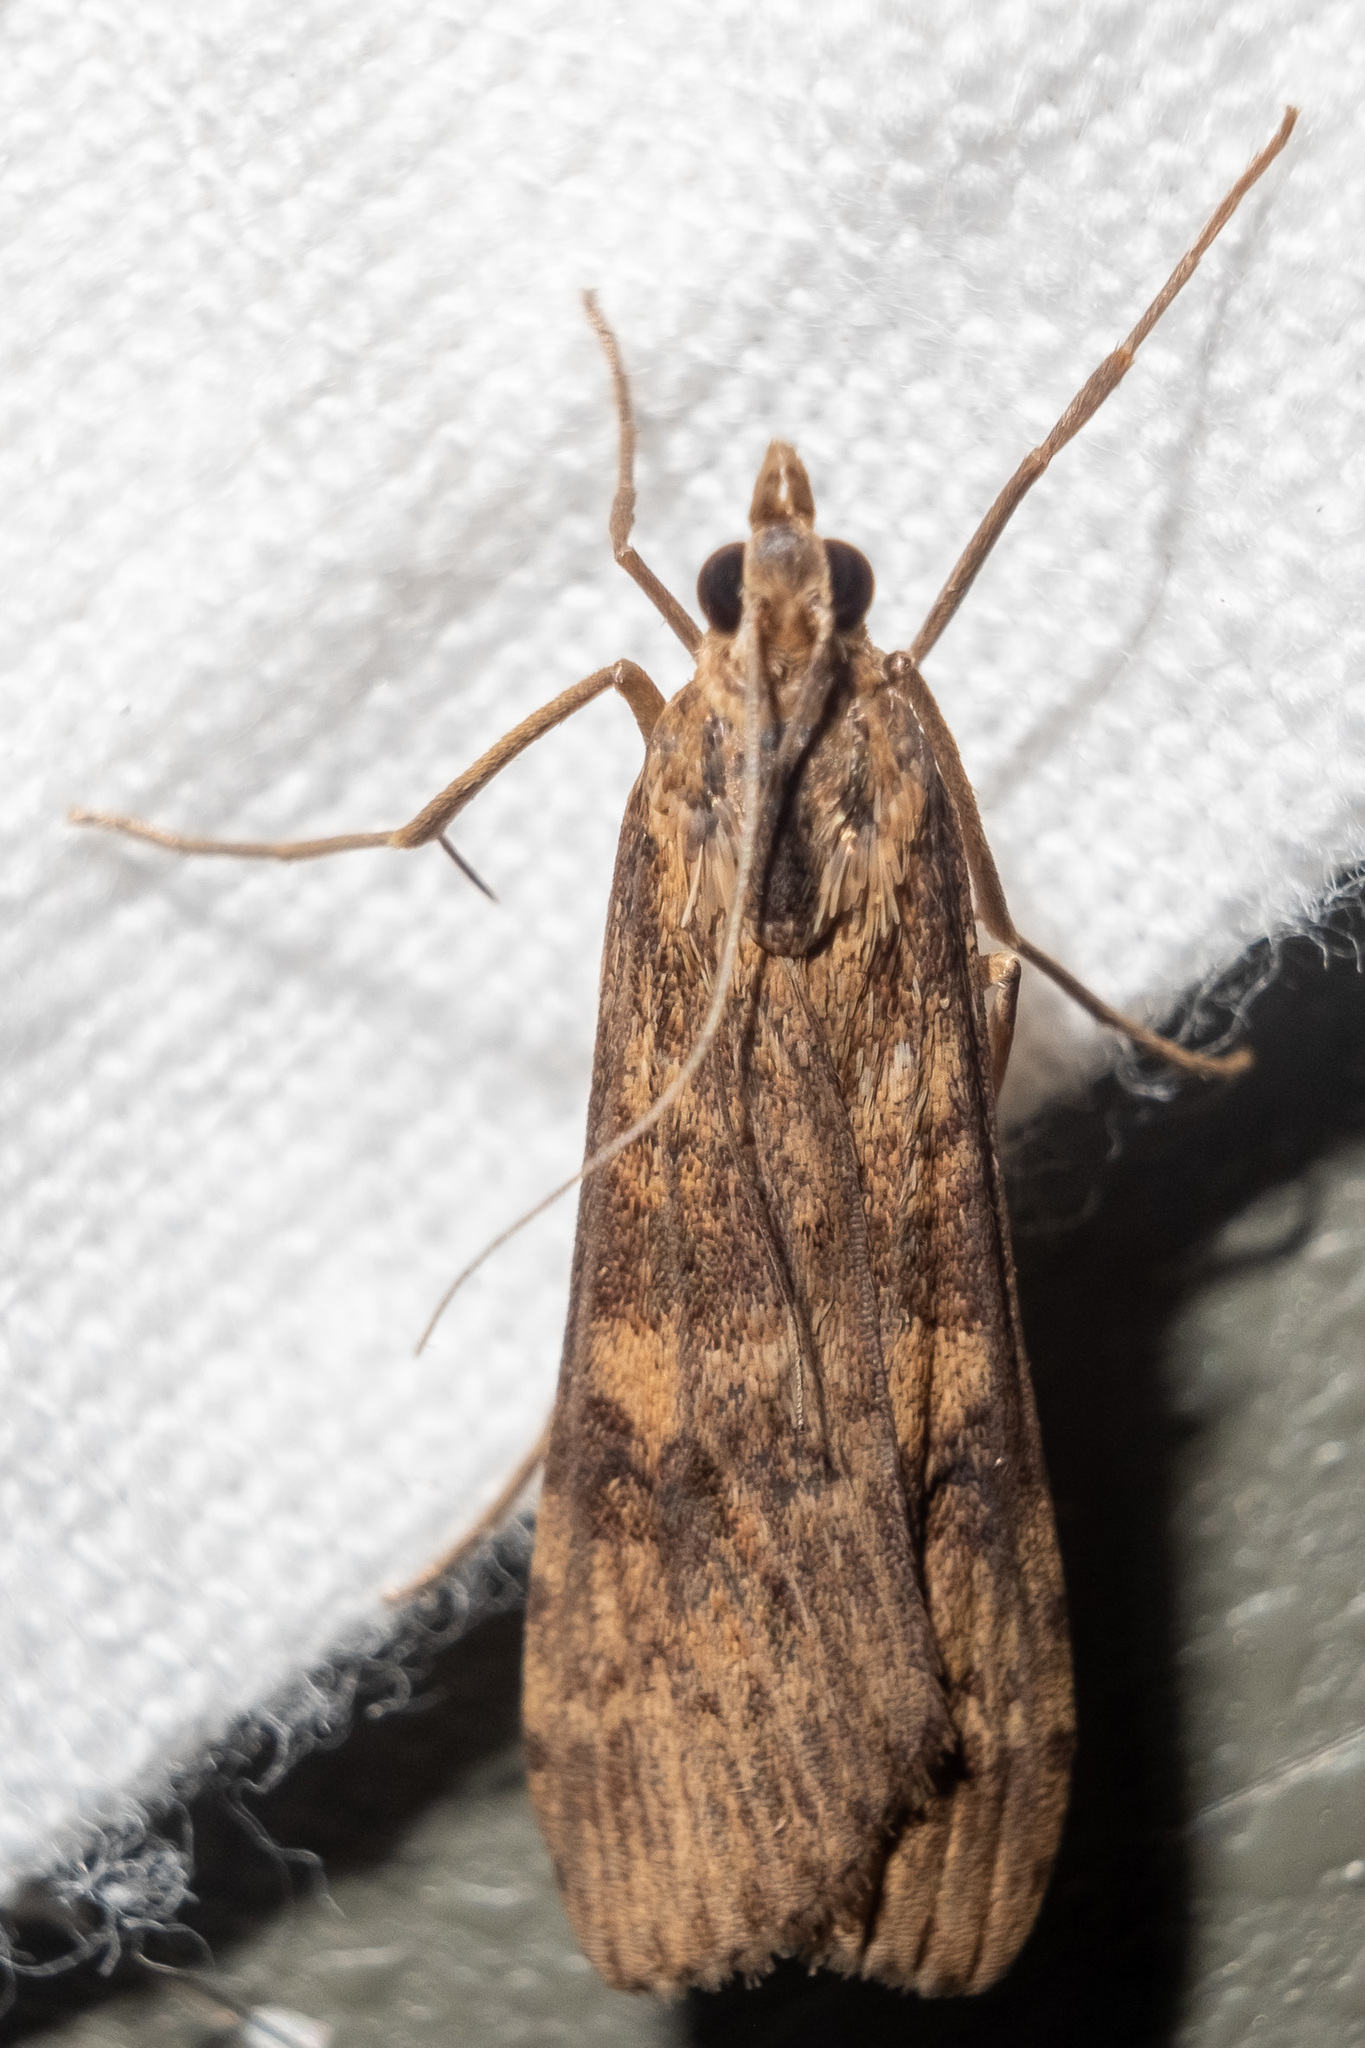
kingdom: Animalia
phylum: Arthropoda
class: Insecta
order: Lepidoptera
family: Crambidae
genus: Nomophila
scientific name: Nomophila nearctica
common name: American rush veneer
